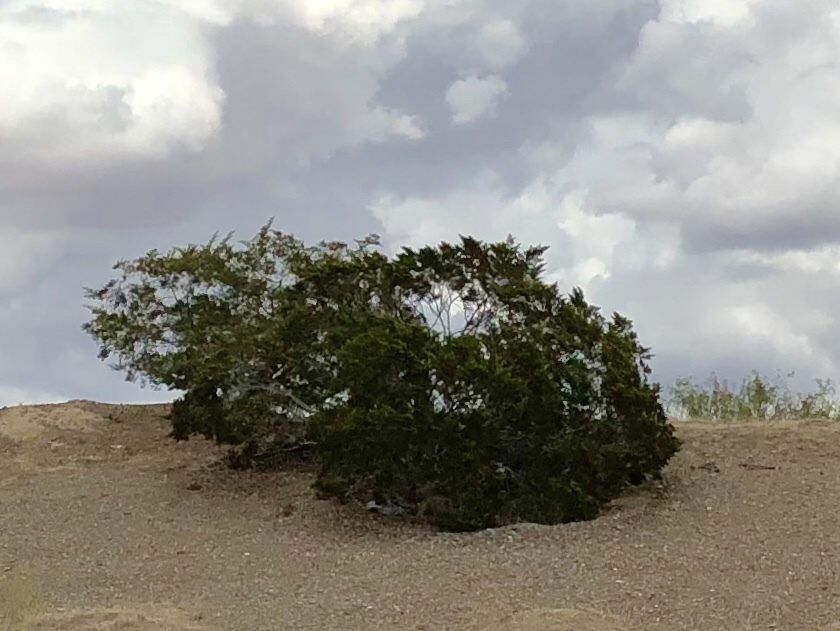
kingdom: Plantae
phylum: Tracheophyta
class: Magnoliopsida
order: Zygophyllales
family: Zygophyllaceae
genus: Larrea
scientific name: Larrea tridentata
